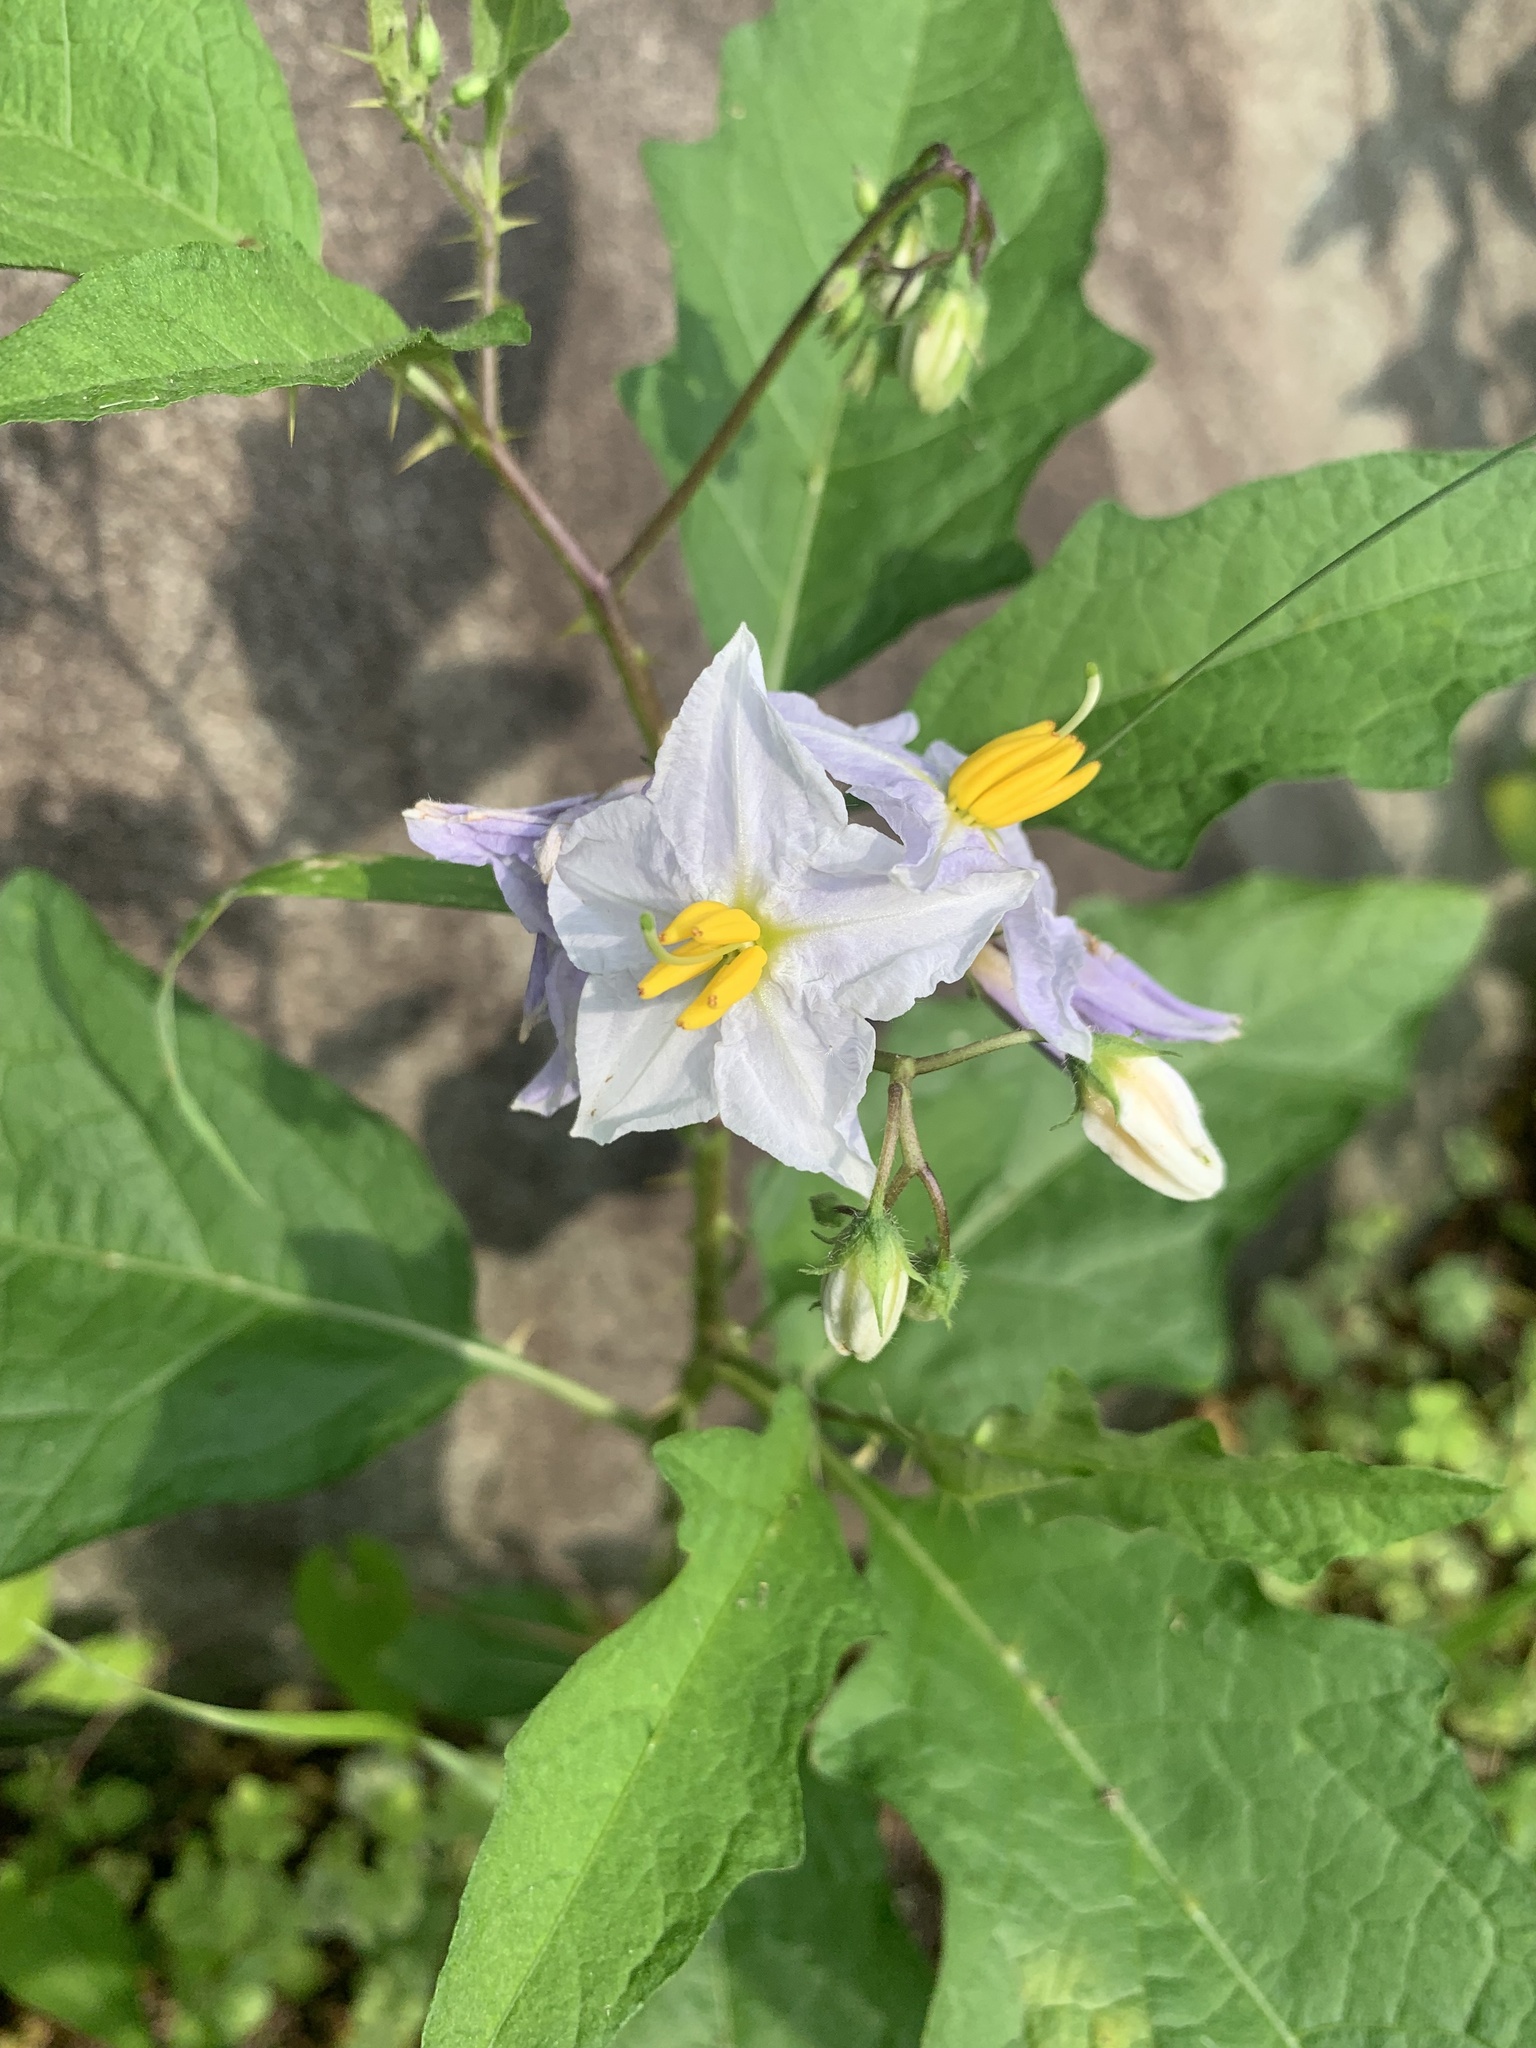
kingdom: Plantae
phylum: Tracheophyta
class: Magnoliopsida
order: Solanales
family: Solanaceae
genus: Solanum
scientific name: Solanum carolinense
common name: Horse-nettle
